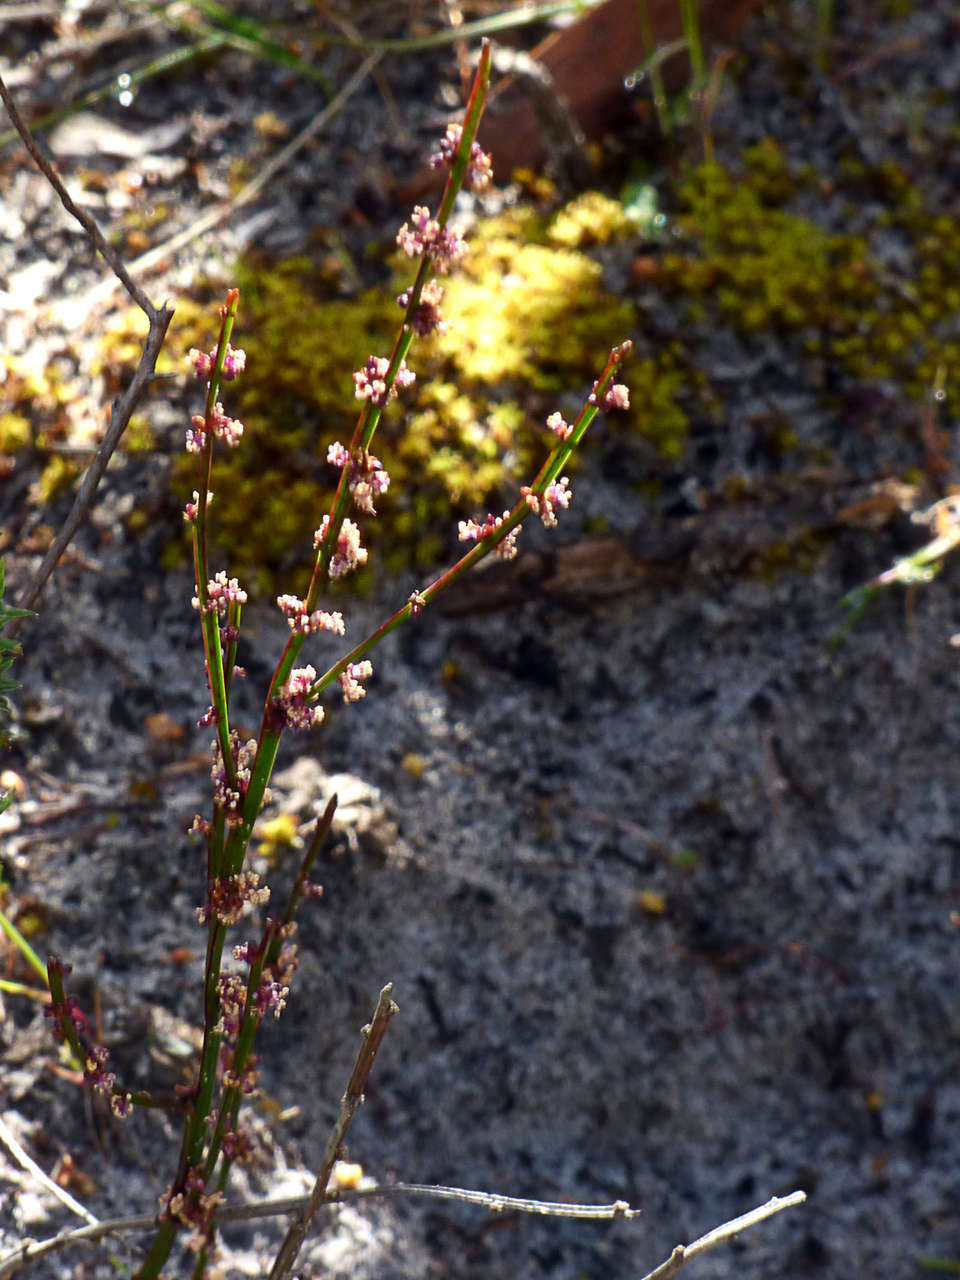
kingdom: Plantae
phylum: Tracheophyta
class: Magnoliopsida
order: Malpighiales
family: Euphorbiaceae
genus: Amperea
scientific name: Amperea xiphoclada
